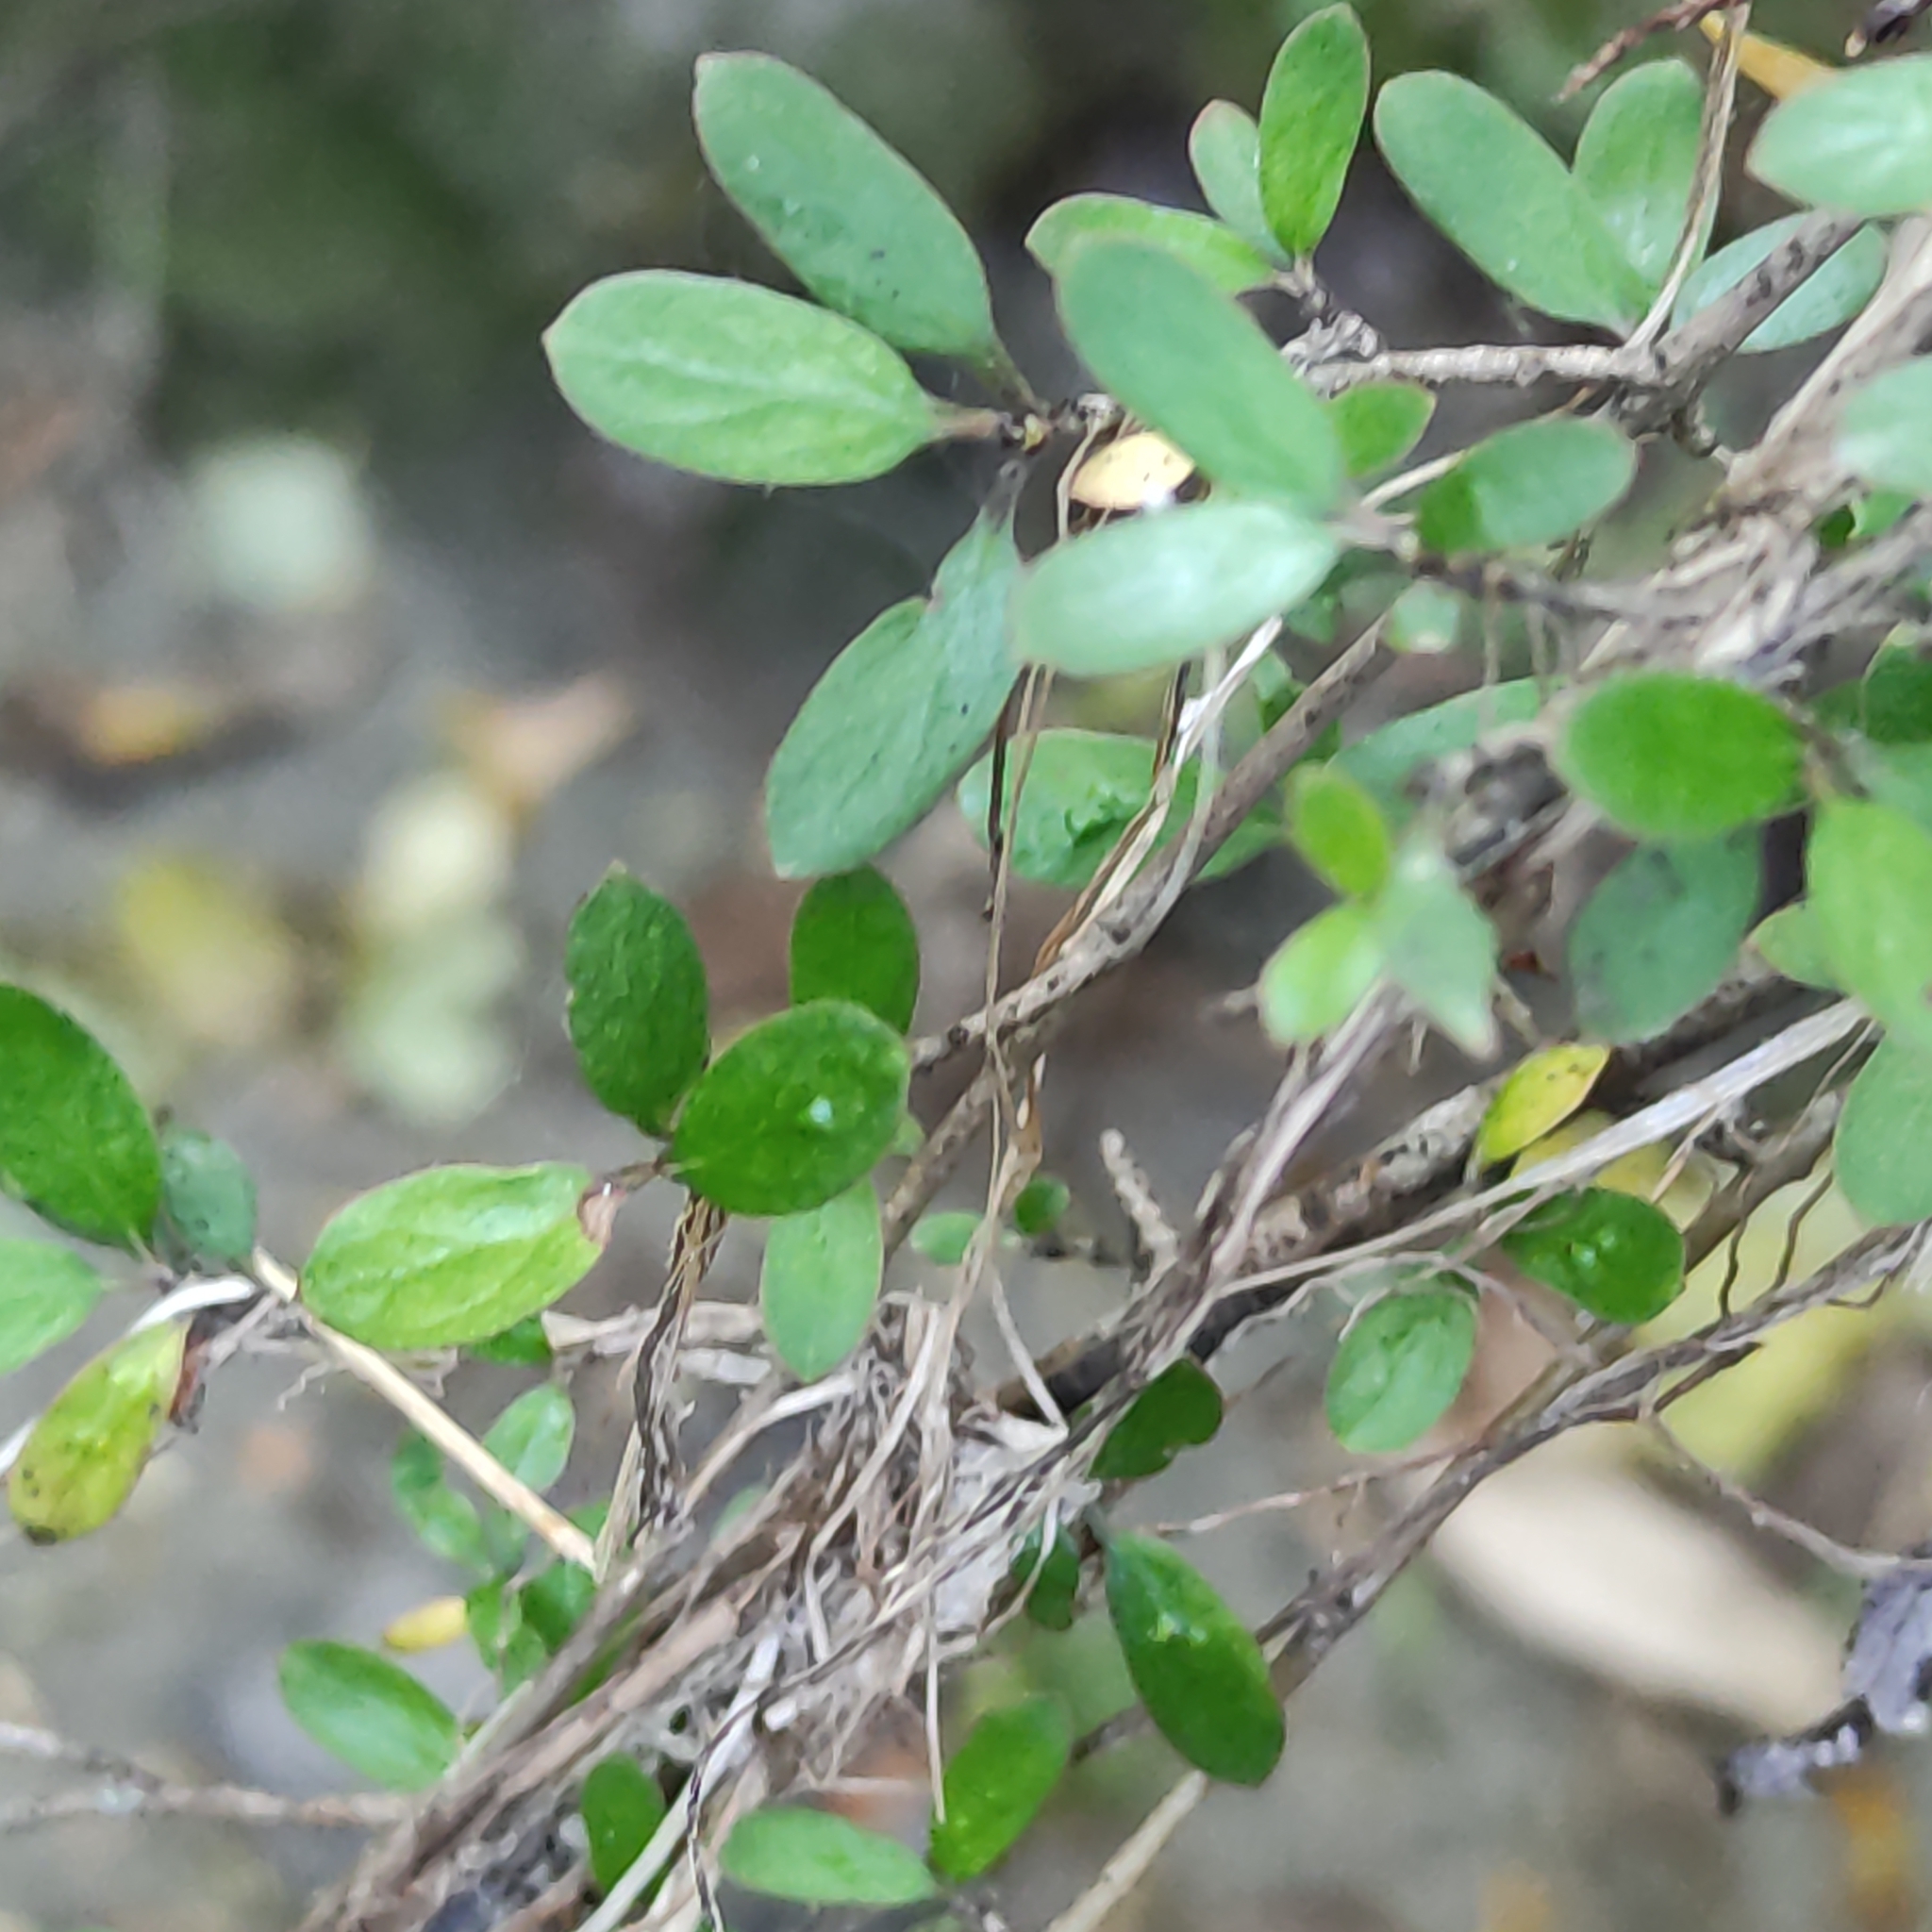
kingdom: Plantae
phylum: Tracheophyta
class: Magnoliopsida
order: Gentianales
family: Rubiaceae
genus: Coprosma
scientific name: Coprosma propinqua
